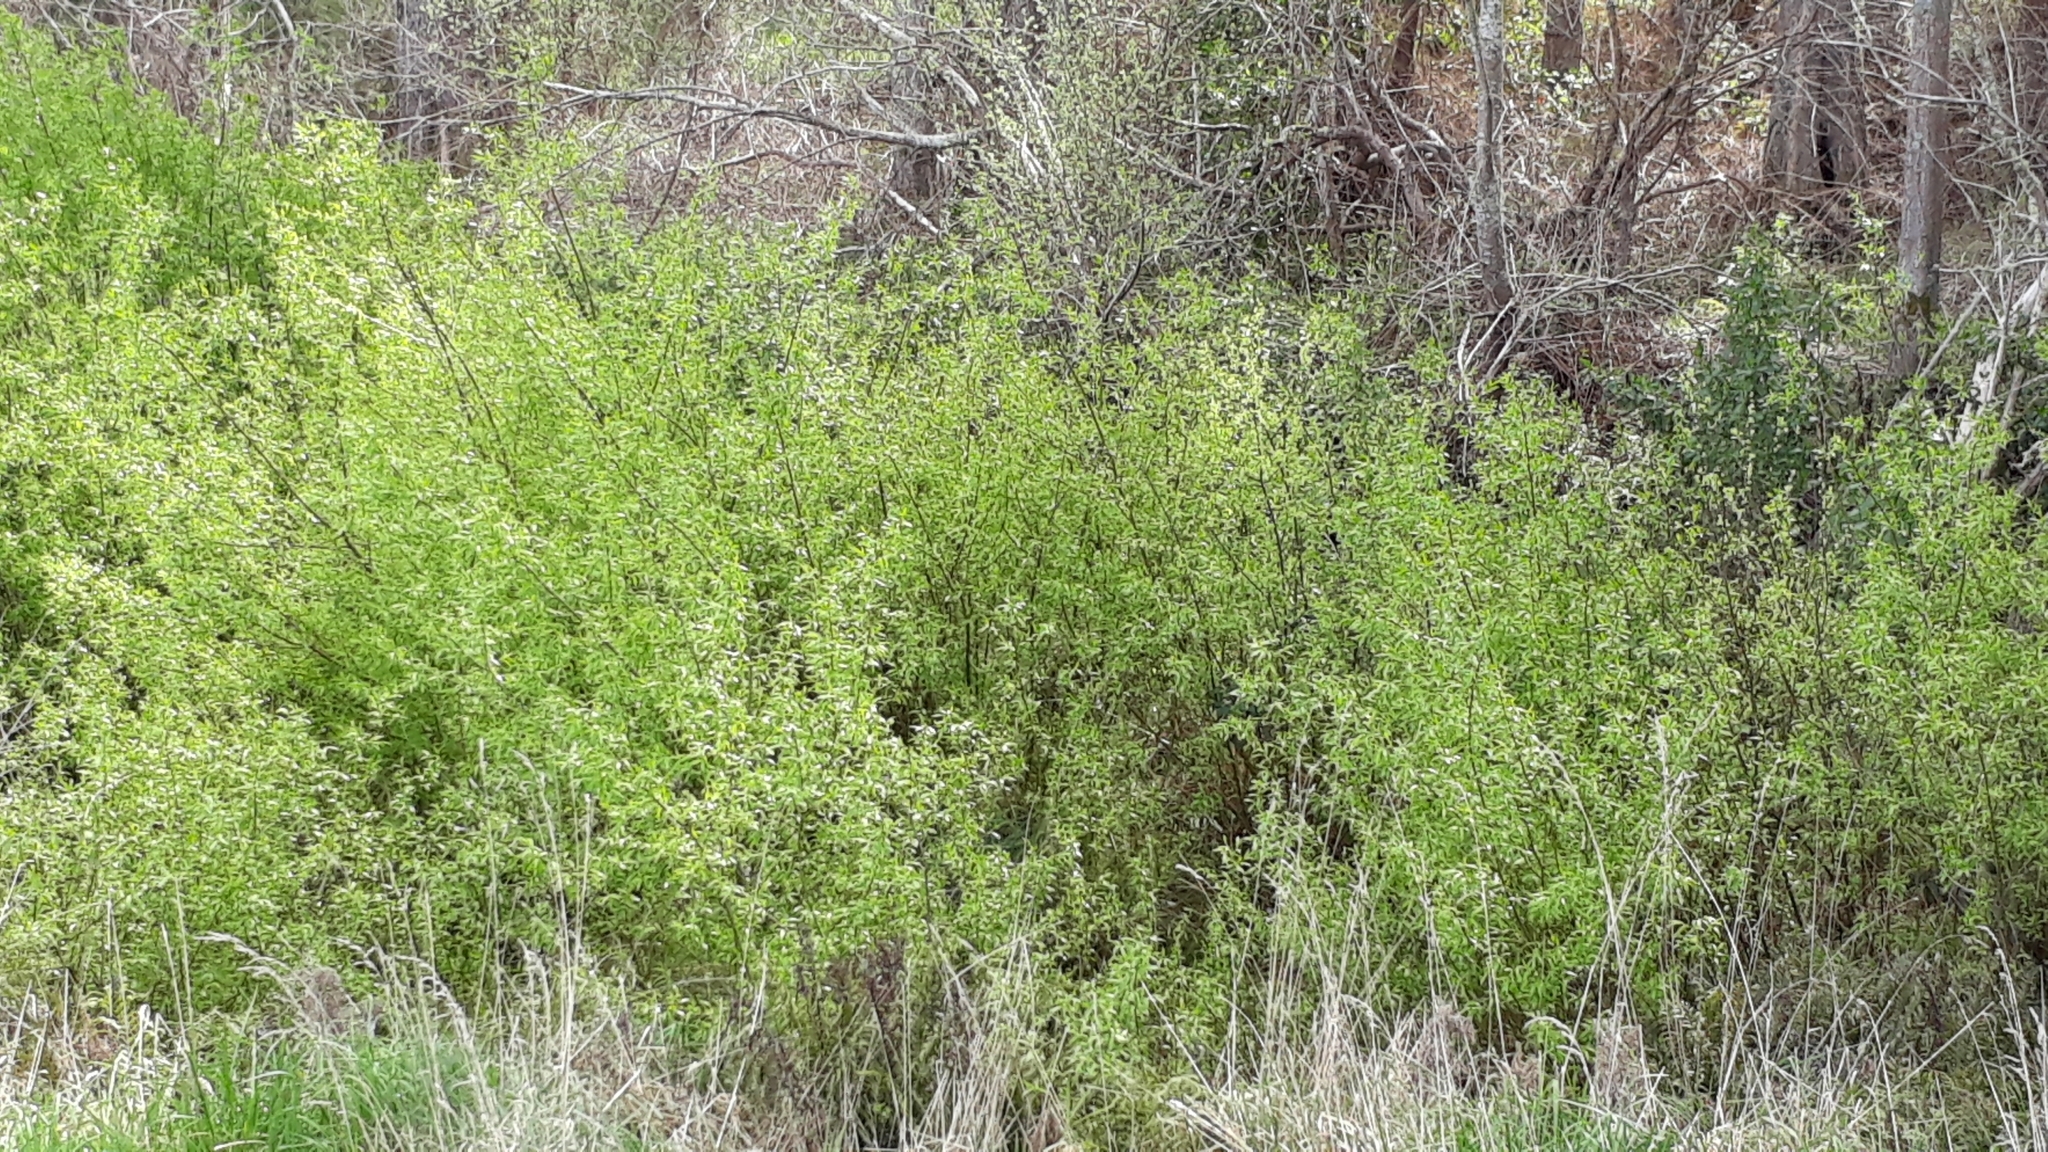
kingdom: Plantae
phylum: Tracheophyta
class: Magnoliopsida
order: Malpighiales
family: Salicaceae
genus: Salix
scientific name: Salix fragilis
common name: Crack willow
